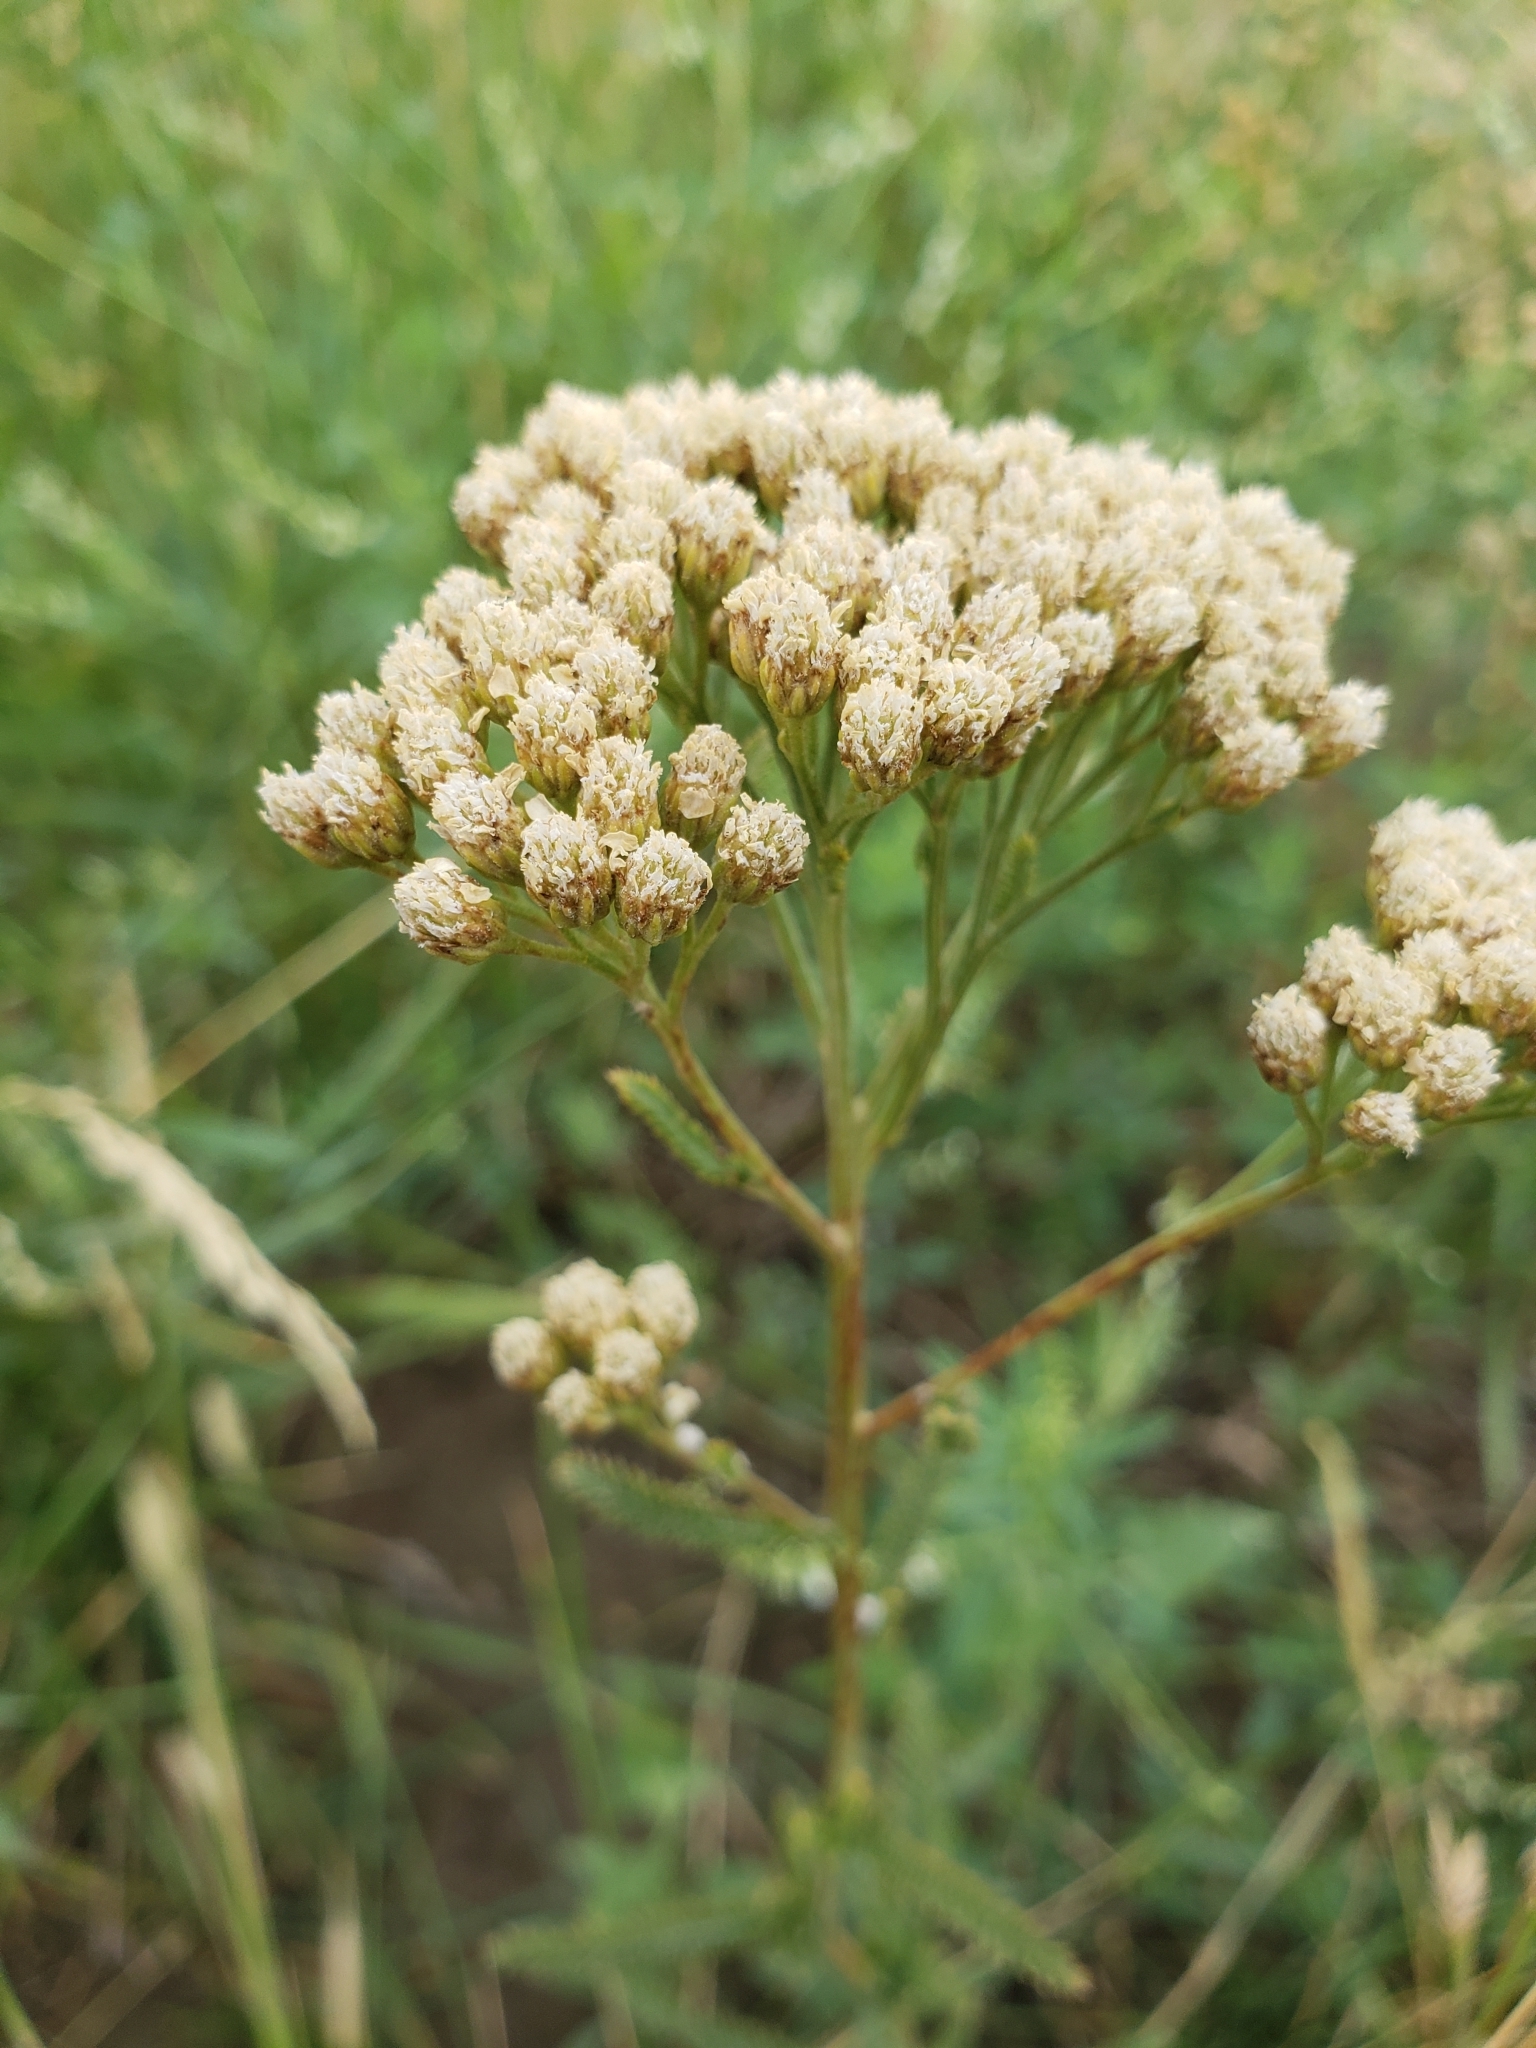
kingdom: Plantae
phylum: Tracheophyta
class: Magnoliopsida
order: Asterales
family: Asteraceae
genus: Achillea
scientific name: Achillea millefolium
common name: Yarrow
